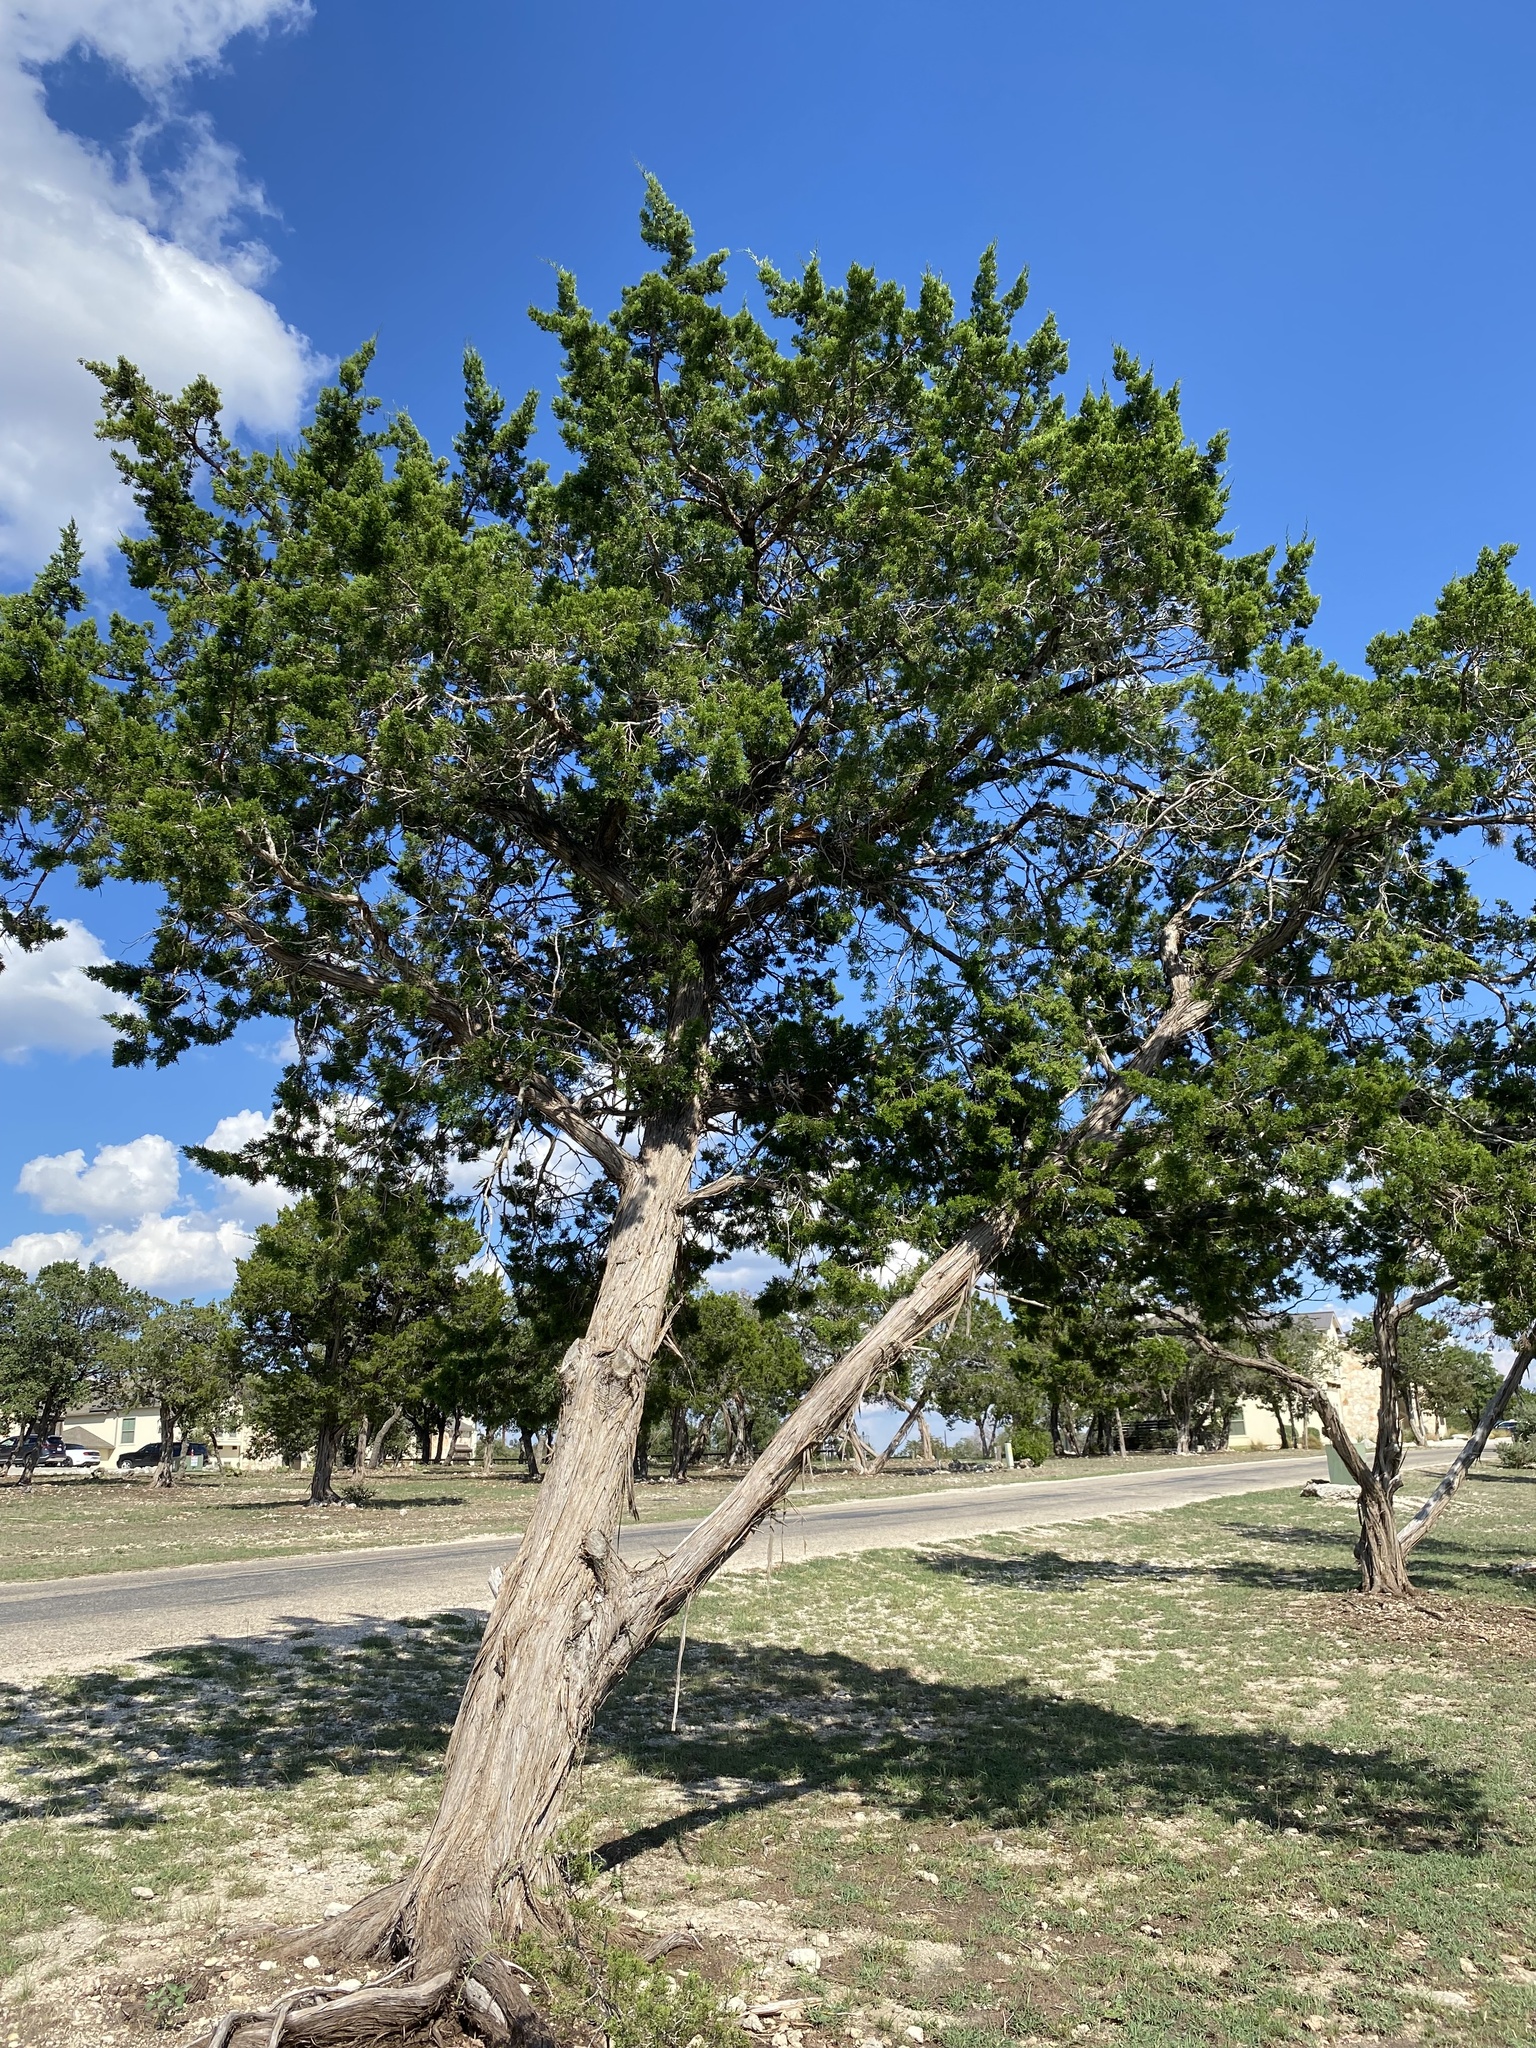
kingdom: Plantae
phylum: Tracheophyta
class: Pinopsida
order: Pinales
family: Cupressaceae
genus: Juniperus
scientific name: Juniperus ashei
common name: Mexican juniper
